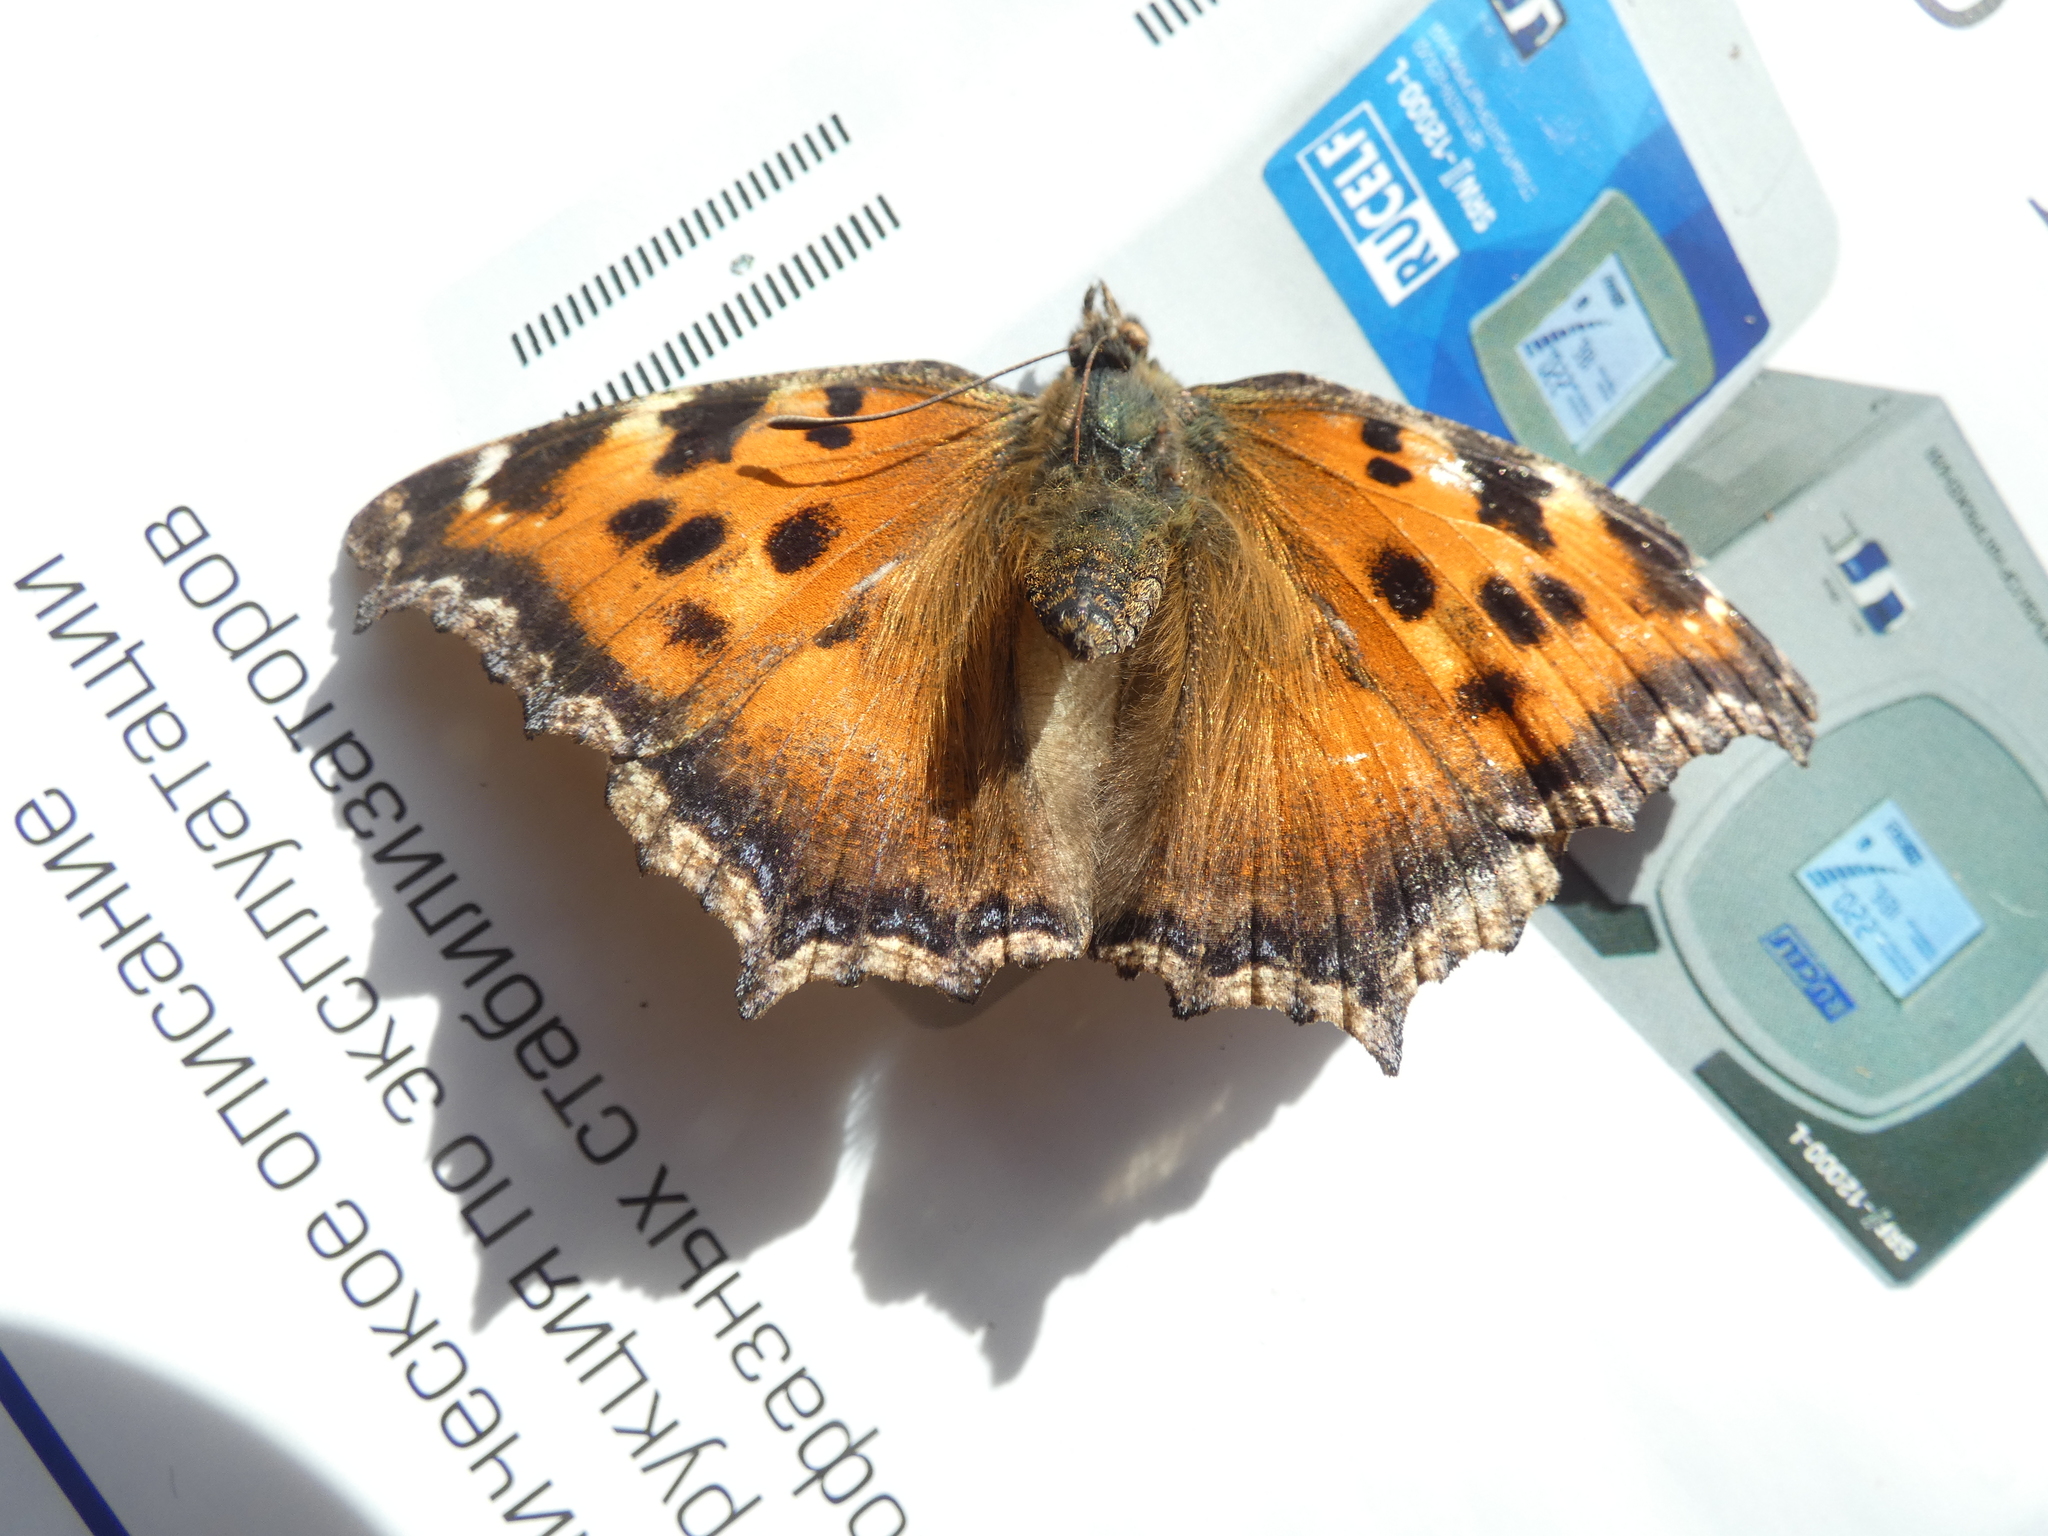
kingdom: Animalia
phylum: Arthropoda
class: Insecta
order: Lepidoptera
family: Nymphalidae
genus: Nymphalis
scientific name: Nymphalis xanthomelas
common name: Scarce tortoiseshell
